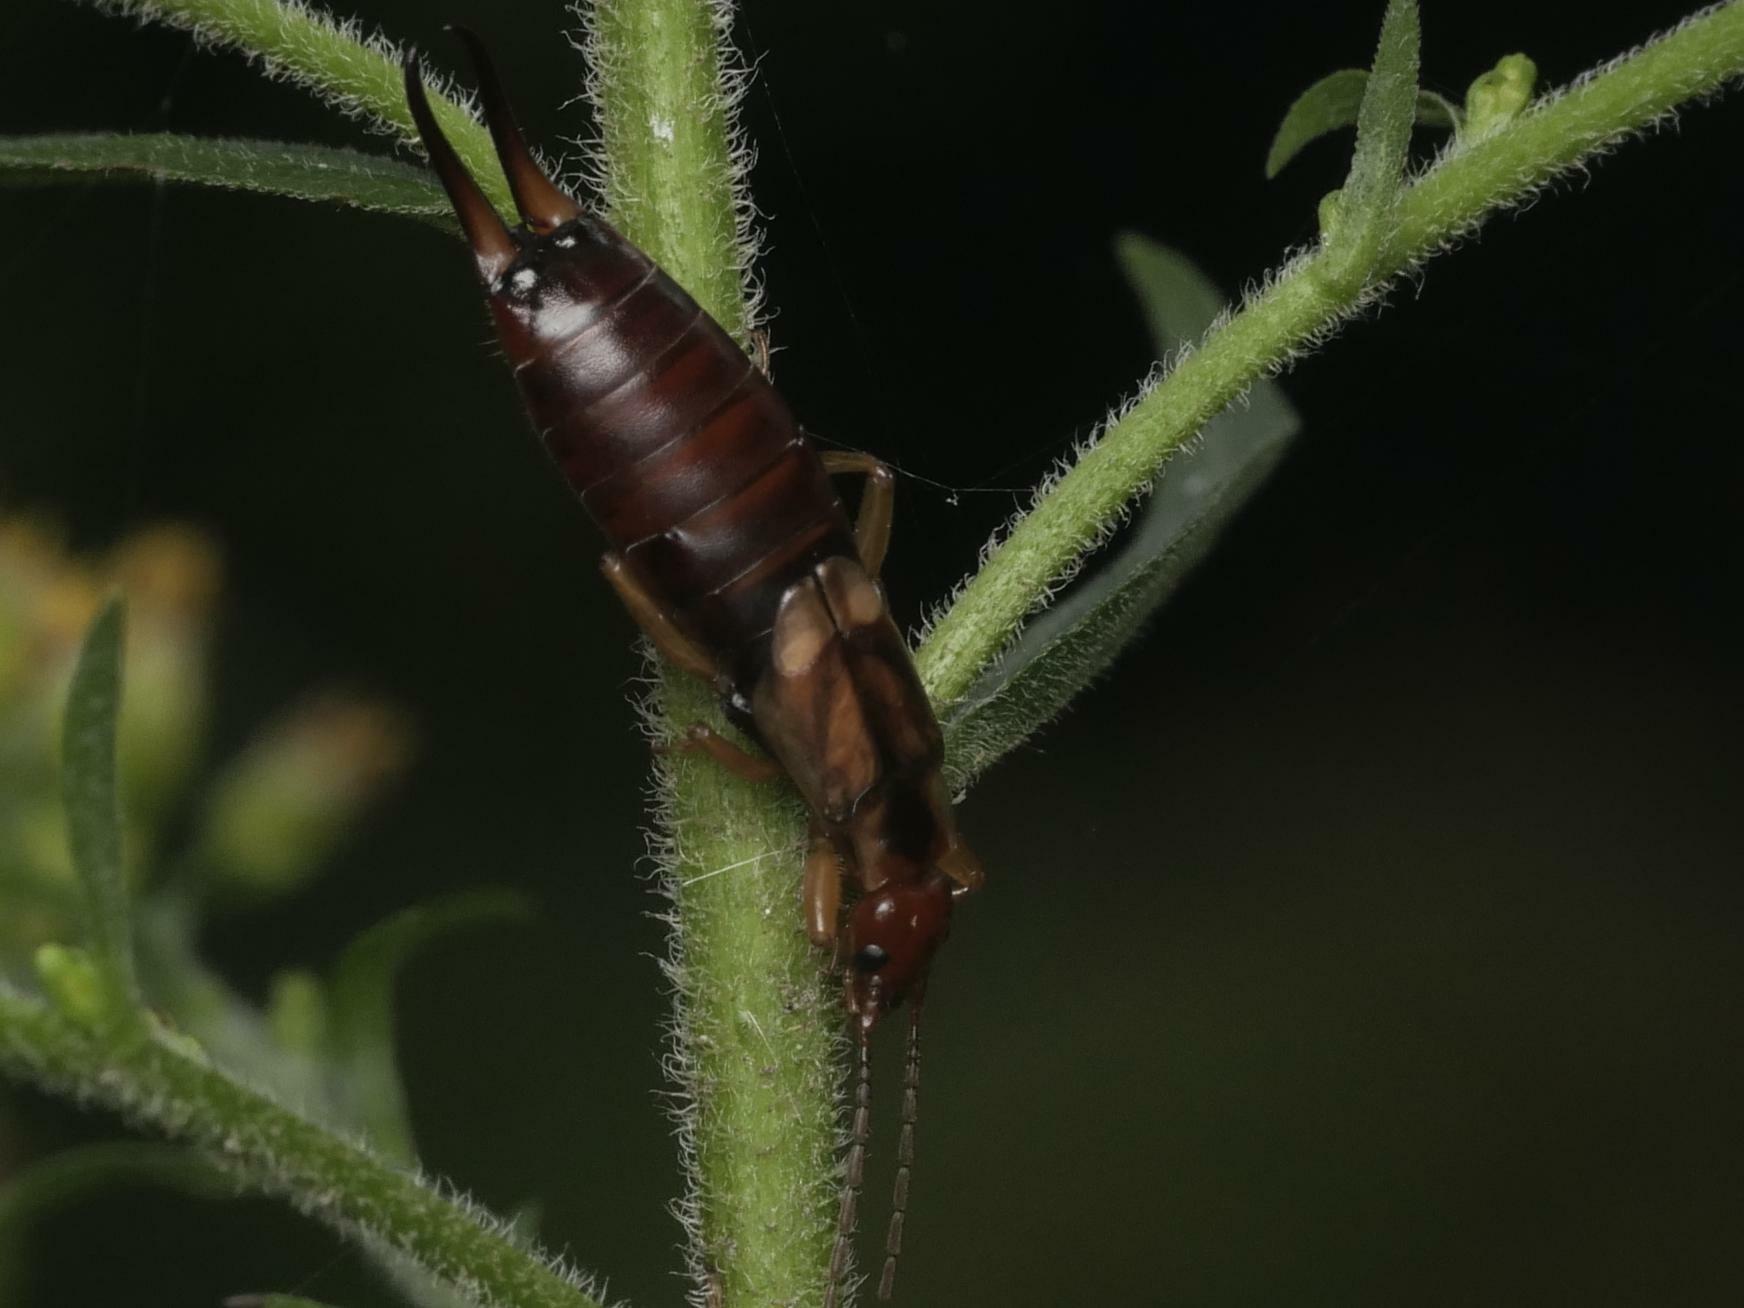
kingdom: Animalia
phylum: Arthropoda
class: Insecta
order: Dermaptera
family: Forficulidae
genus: Forficula
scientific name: Forficula
